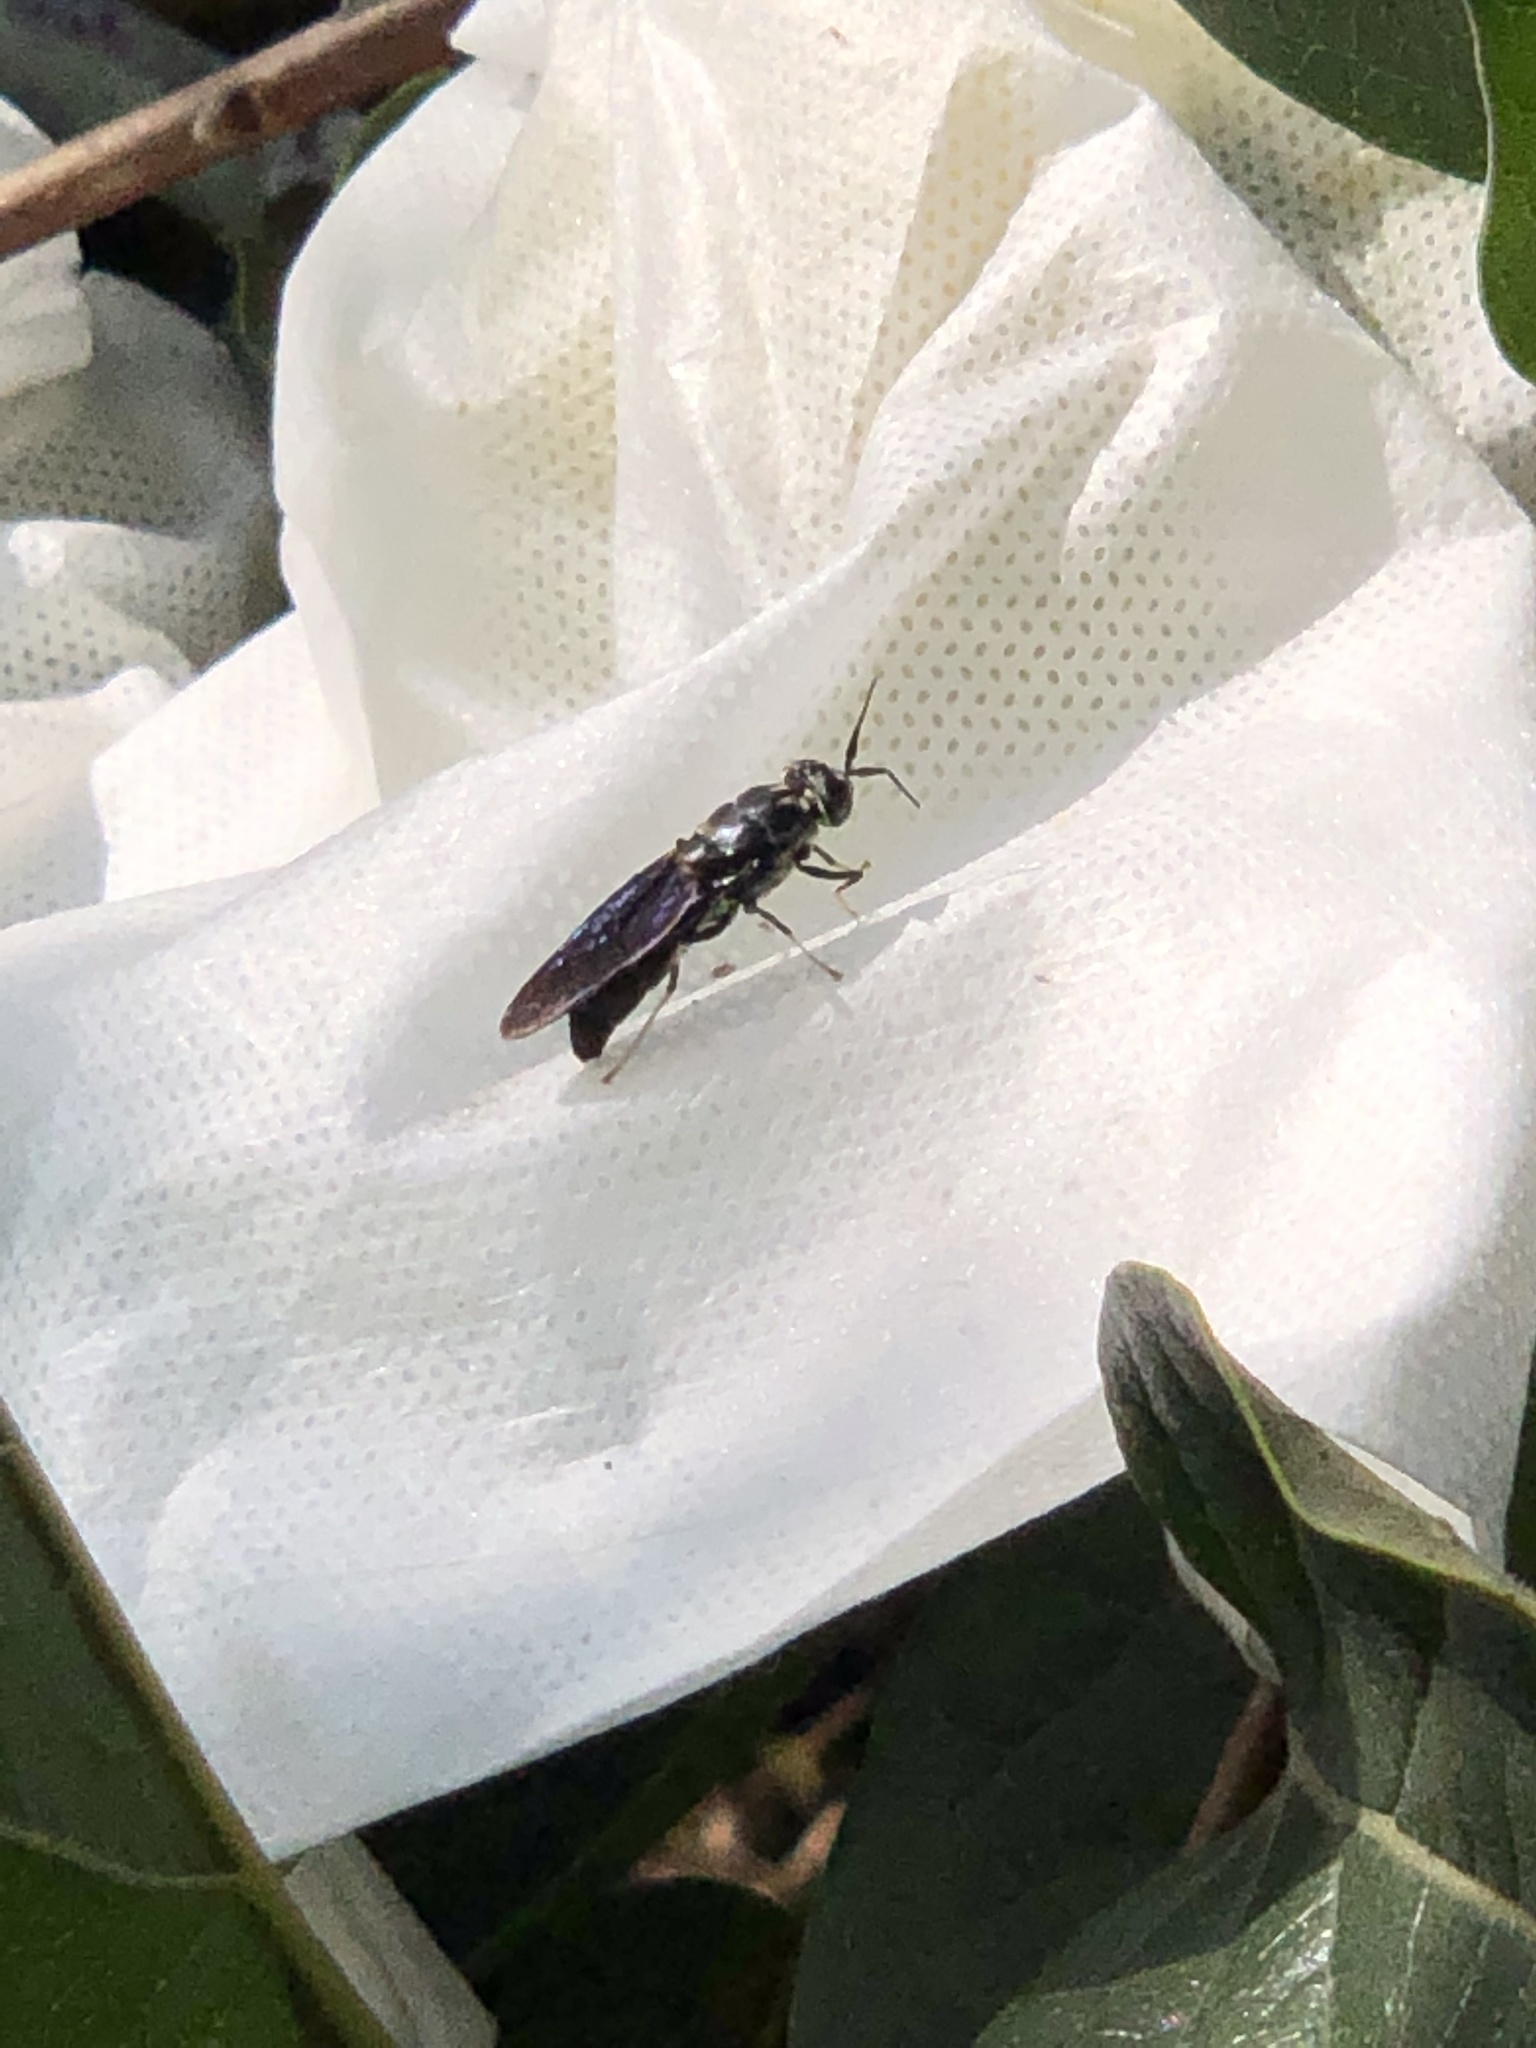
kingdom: Animalia
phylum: Arthropoda
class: Insecta
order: Diptera
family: Stratiomyidae
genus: Hermetia
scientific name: Hermetia illucens
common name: Black soldier fly
